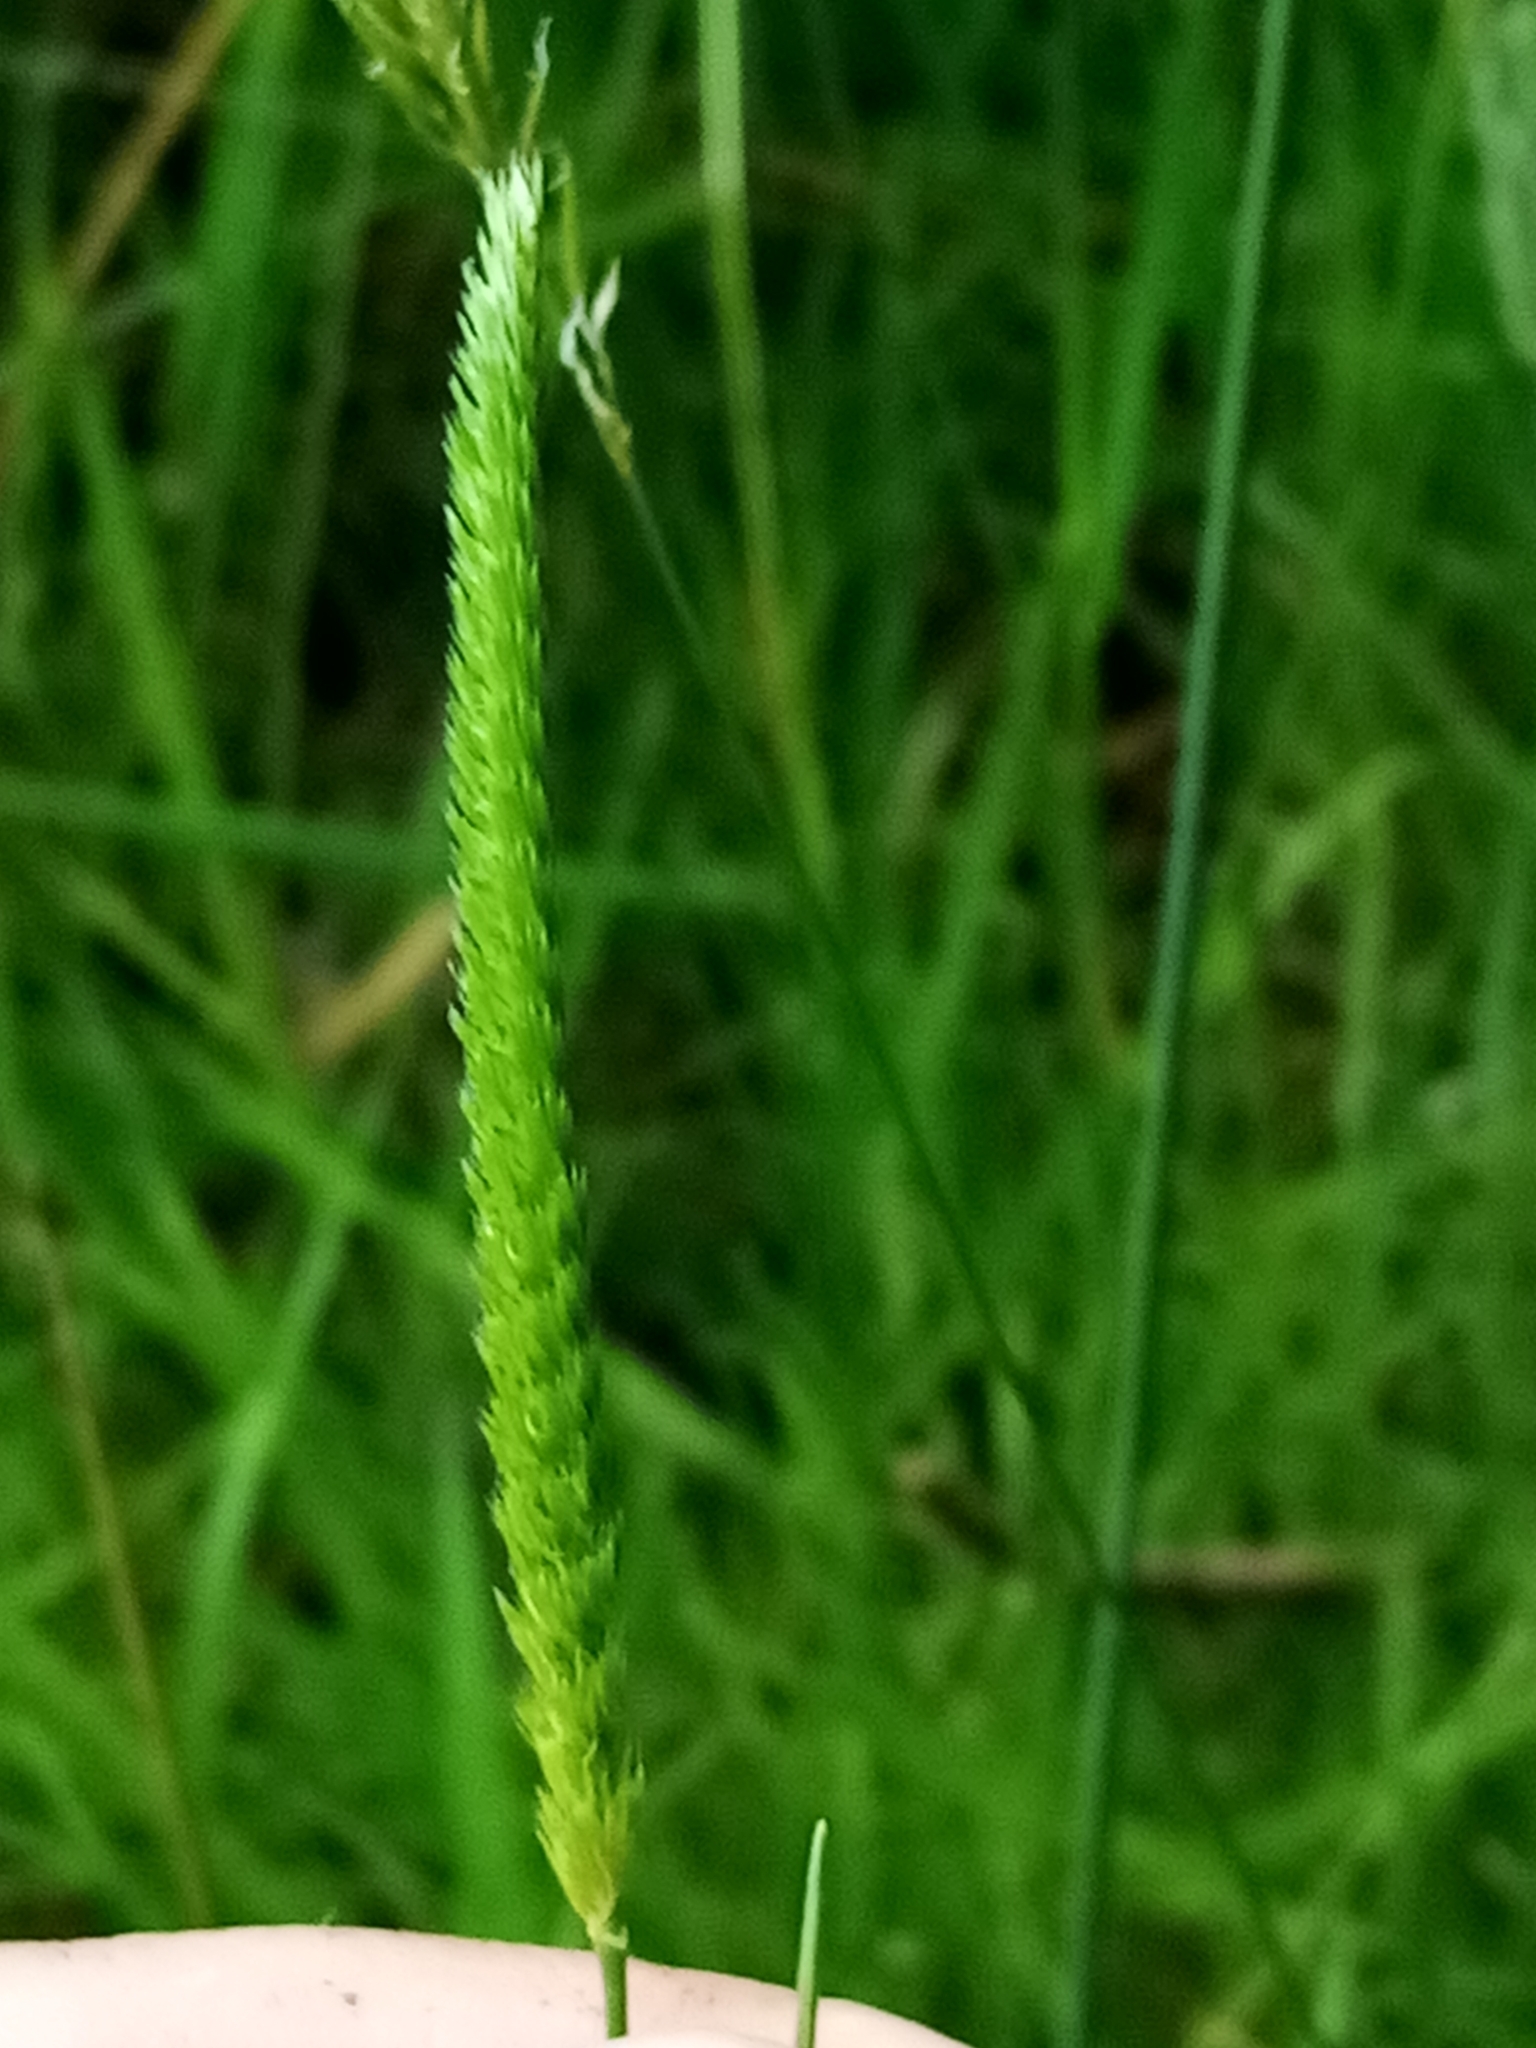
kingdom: Plantae
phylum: Tracheophyta
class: Liliopsida
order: Poales
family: Poaceae
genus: Cynosurus
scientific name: Cynosurus cristatus
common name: Crested dog's-tail
